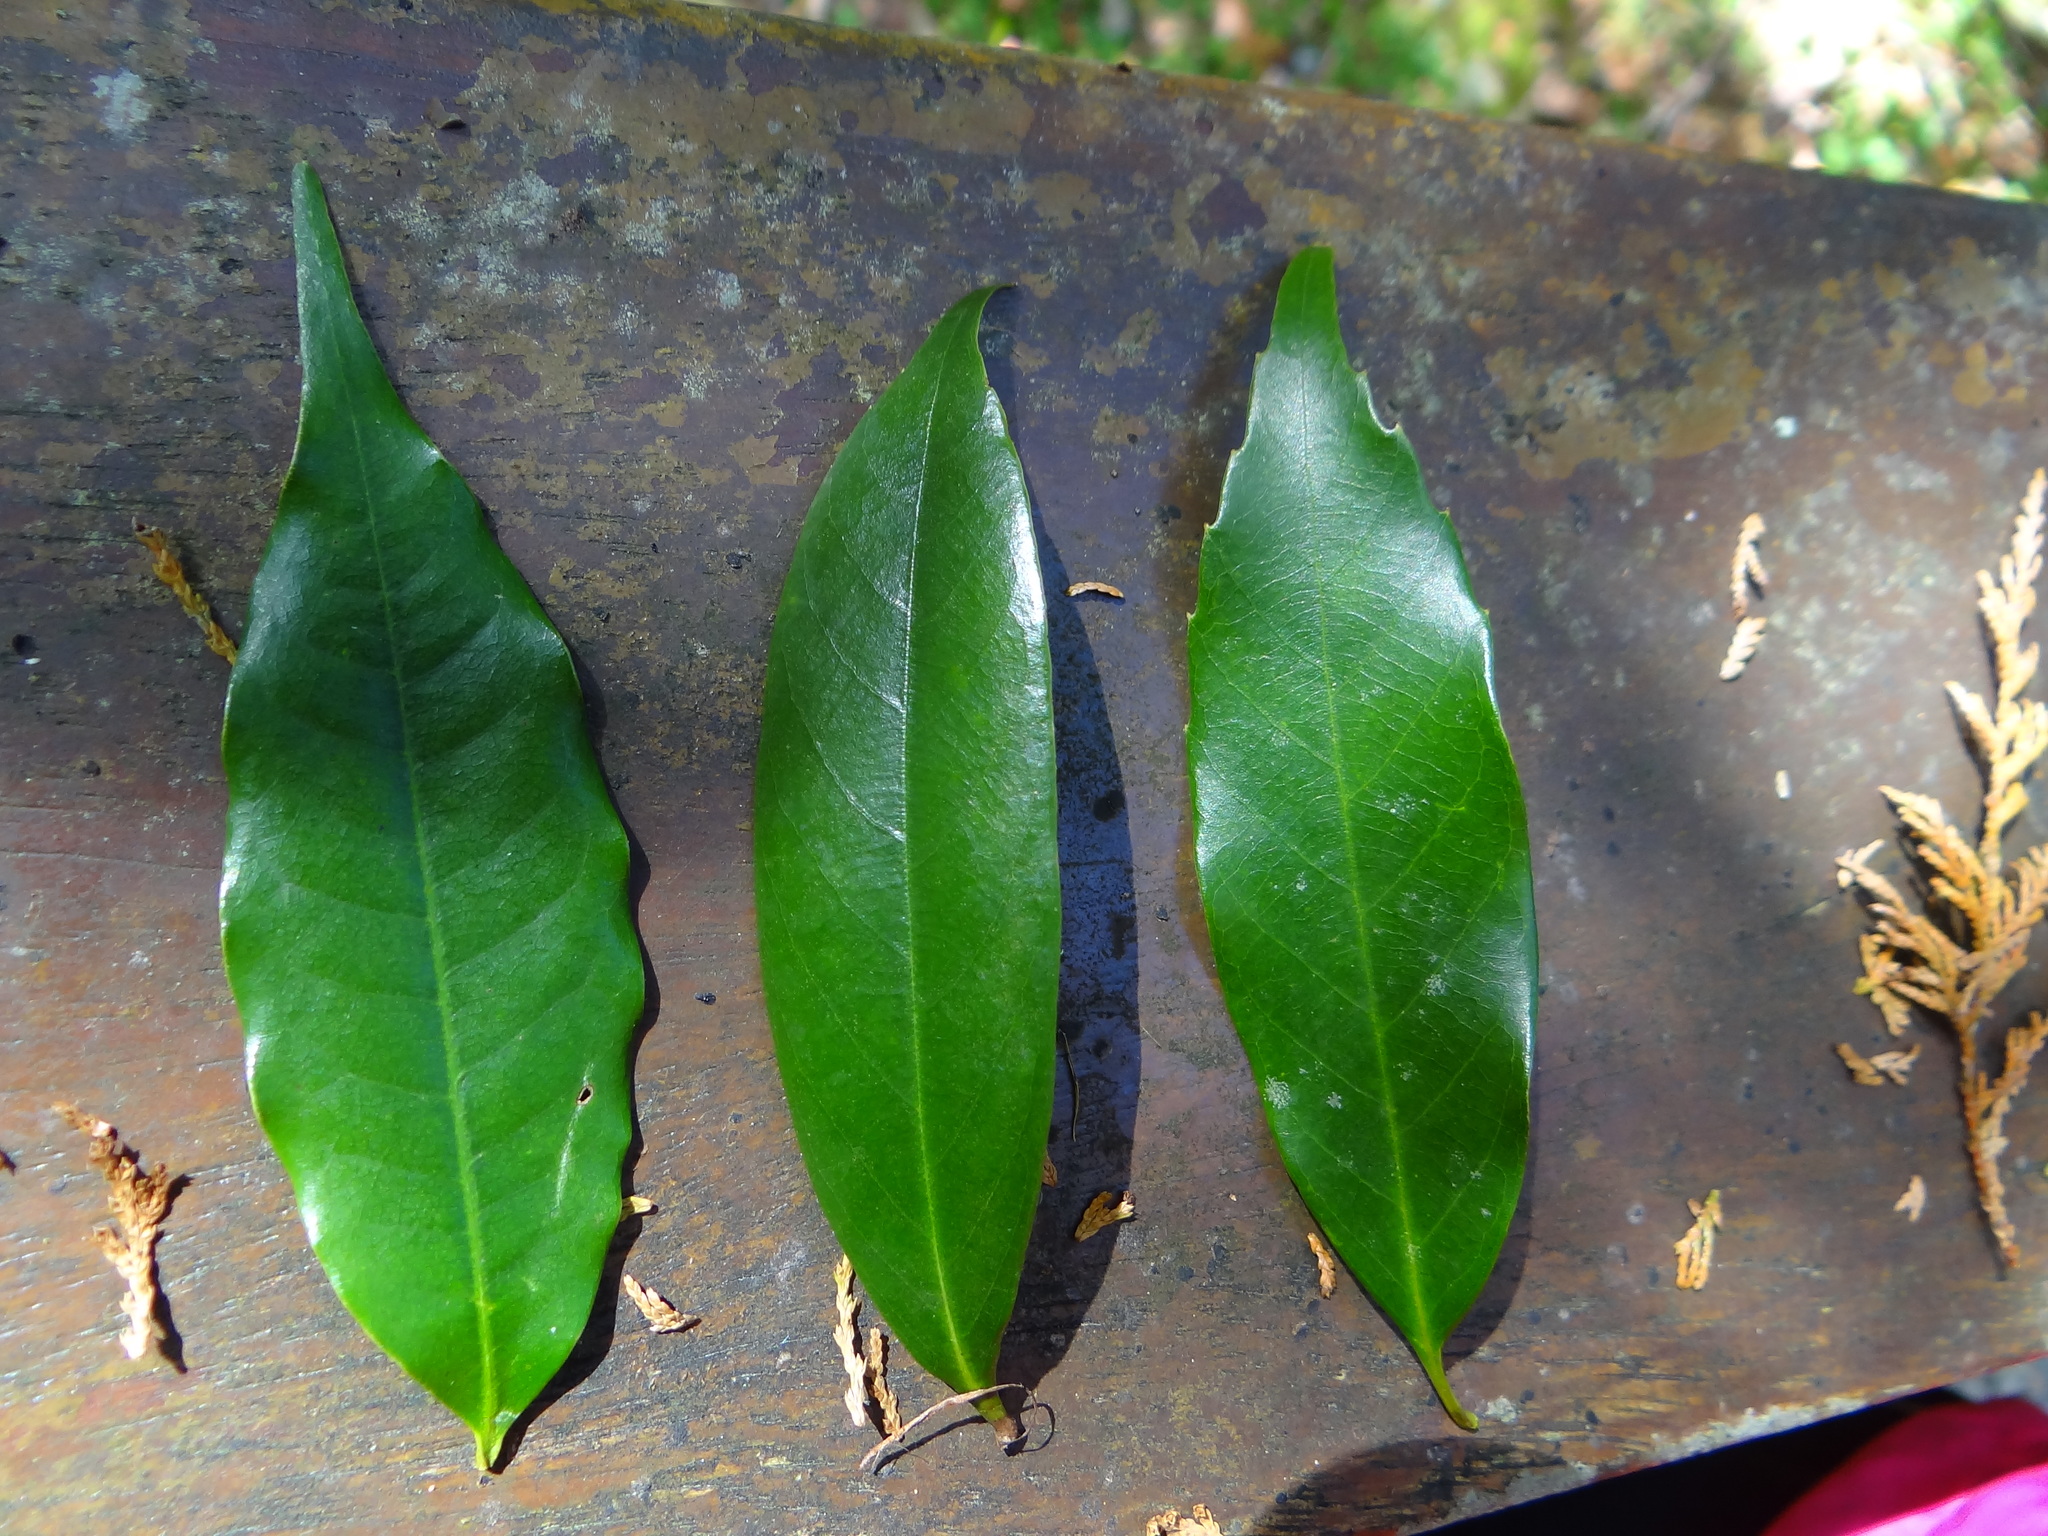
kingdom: Plantae
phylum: Tracheophyta
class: Magnoliopsida
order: Fagales
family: Fagaceae
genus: Quercus
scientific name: Quercus sessilifolia
